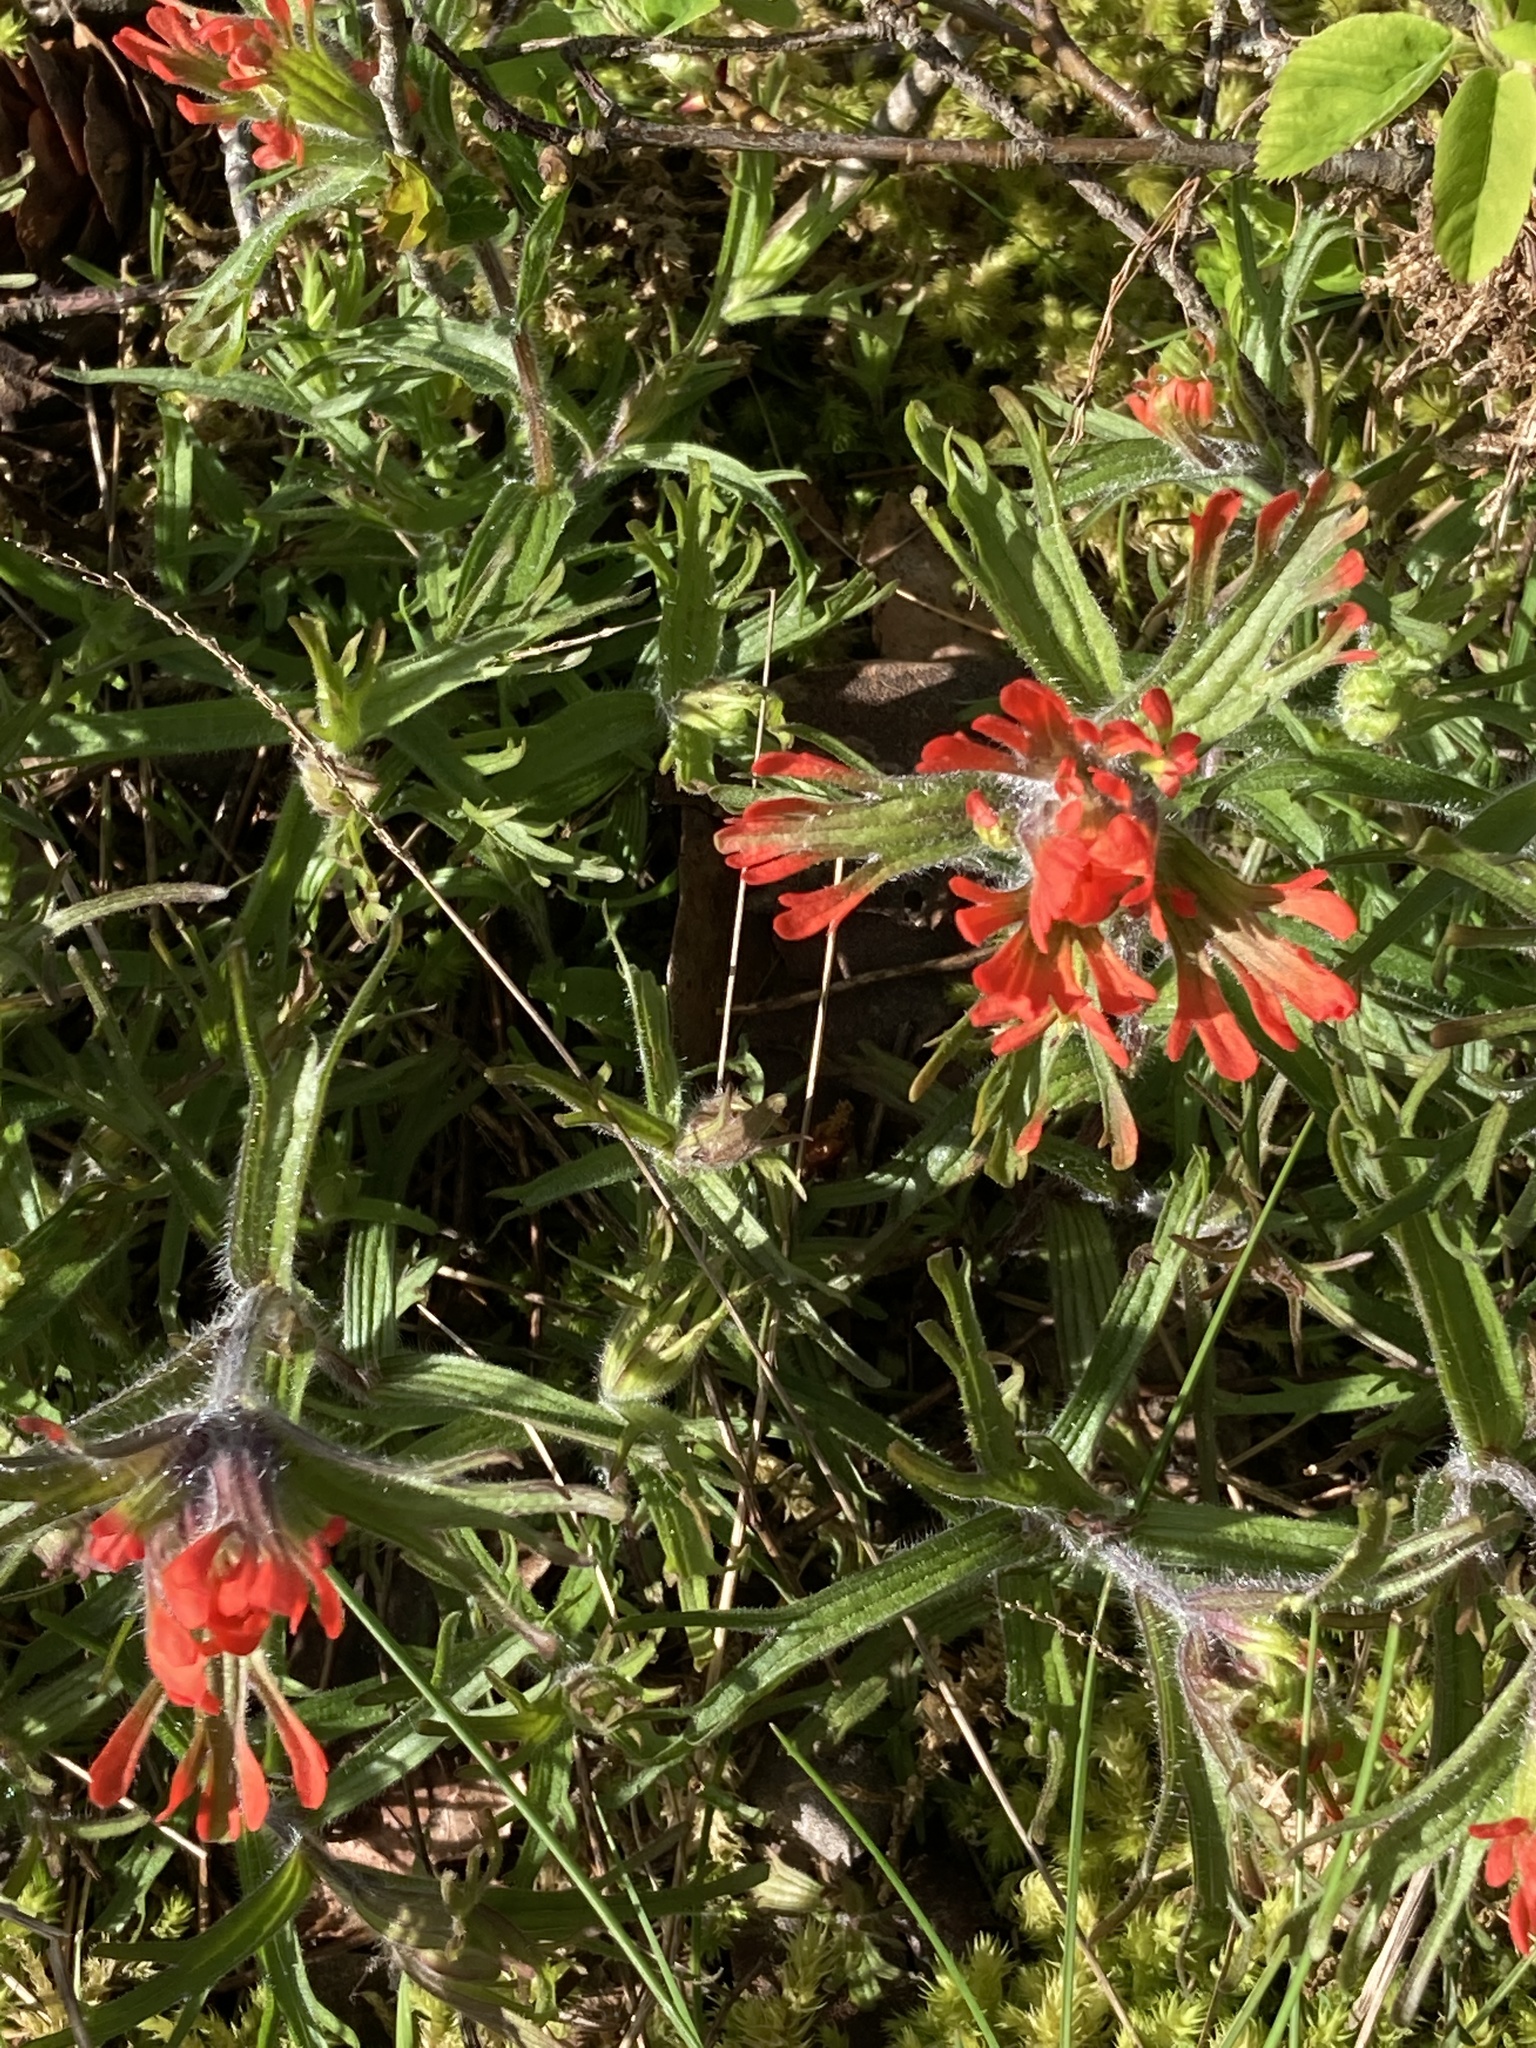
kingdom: Plantae
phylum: Tracheophyta
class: Magnoliopsida
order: Lamiales
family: Orobanchaceae
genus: Castilleja
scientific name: Castilleja hispida
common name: Bristly paintbrush
